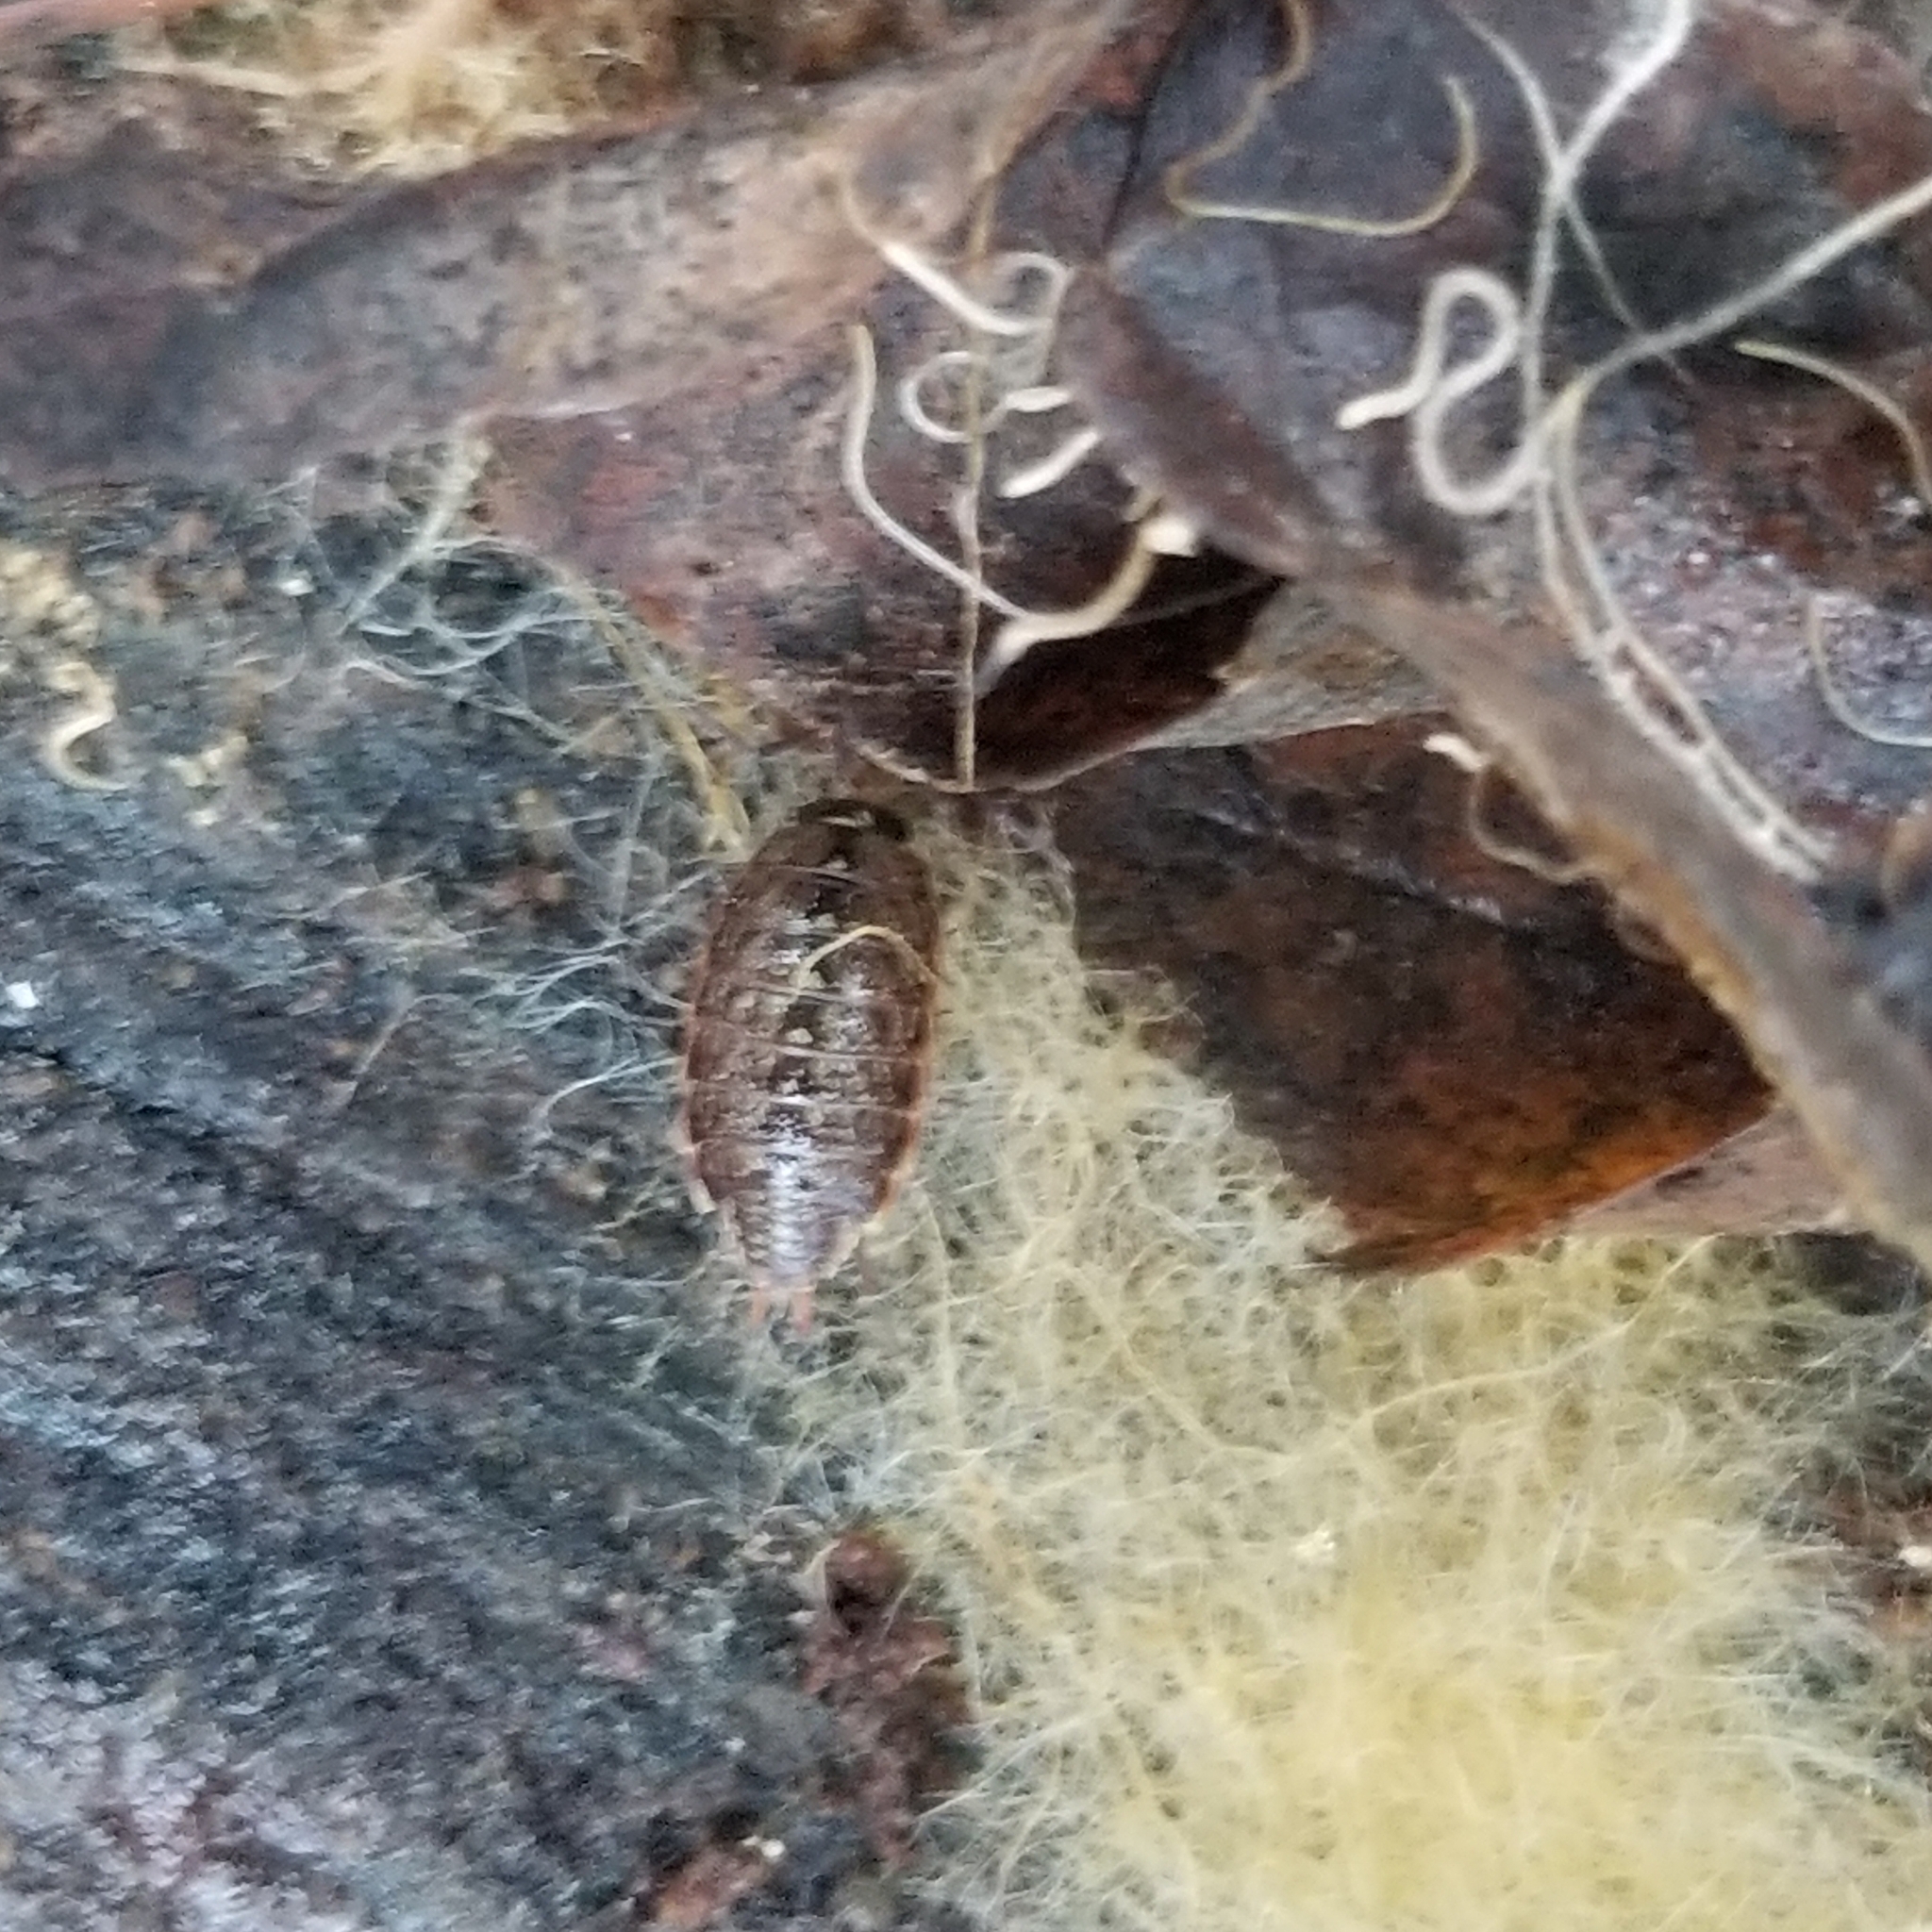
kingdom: Animalia
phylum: Arthropoda
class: Malacostraca
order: Isopoda
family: Philosciidae
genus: Philoscia
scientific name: Philoscia muscorum
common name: Common striped woodlouse
